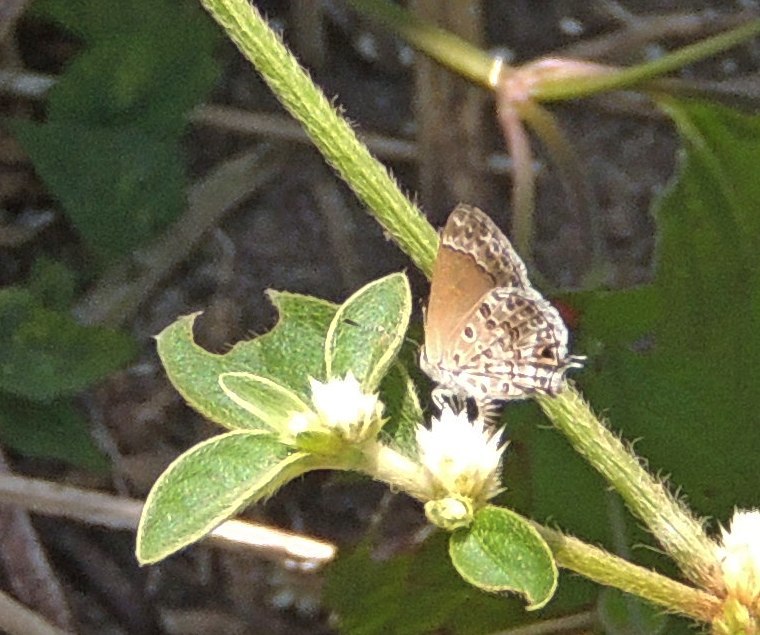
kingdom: Animalia
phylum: Arthropoda
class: Insecta
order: Lepidoptera
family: Lycaenidae
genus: Strymon
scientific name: Strymon astiocha
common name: Gray-spotted scrub-hairstreak
